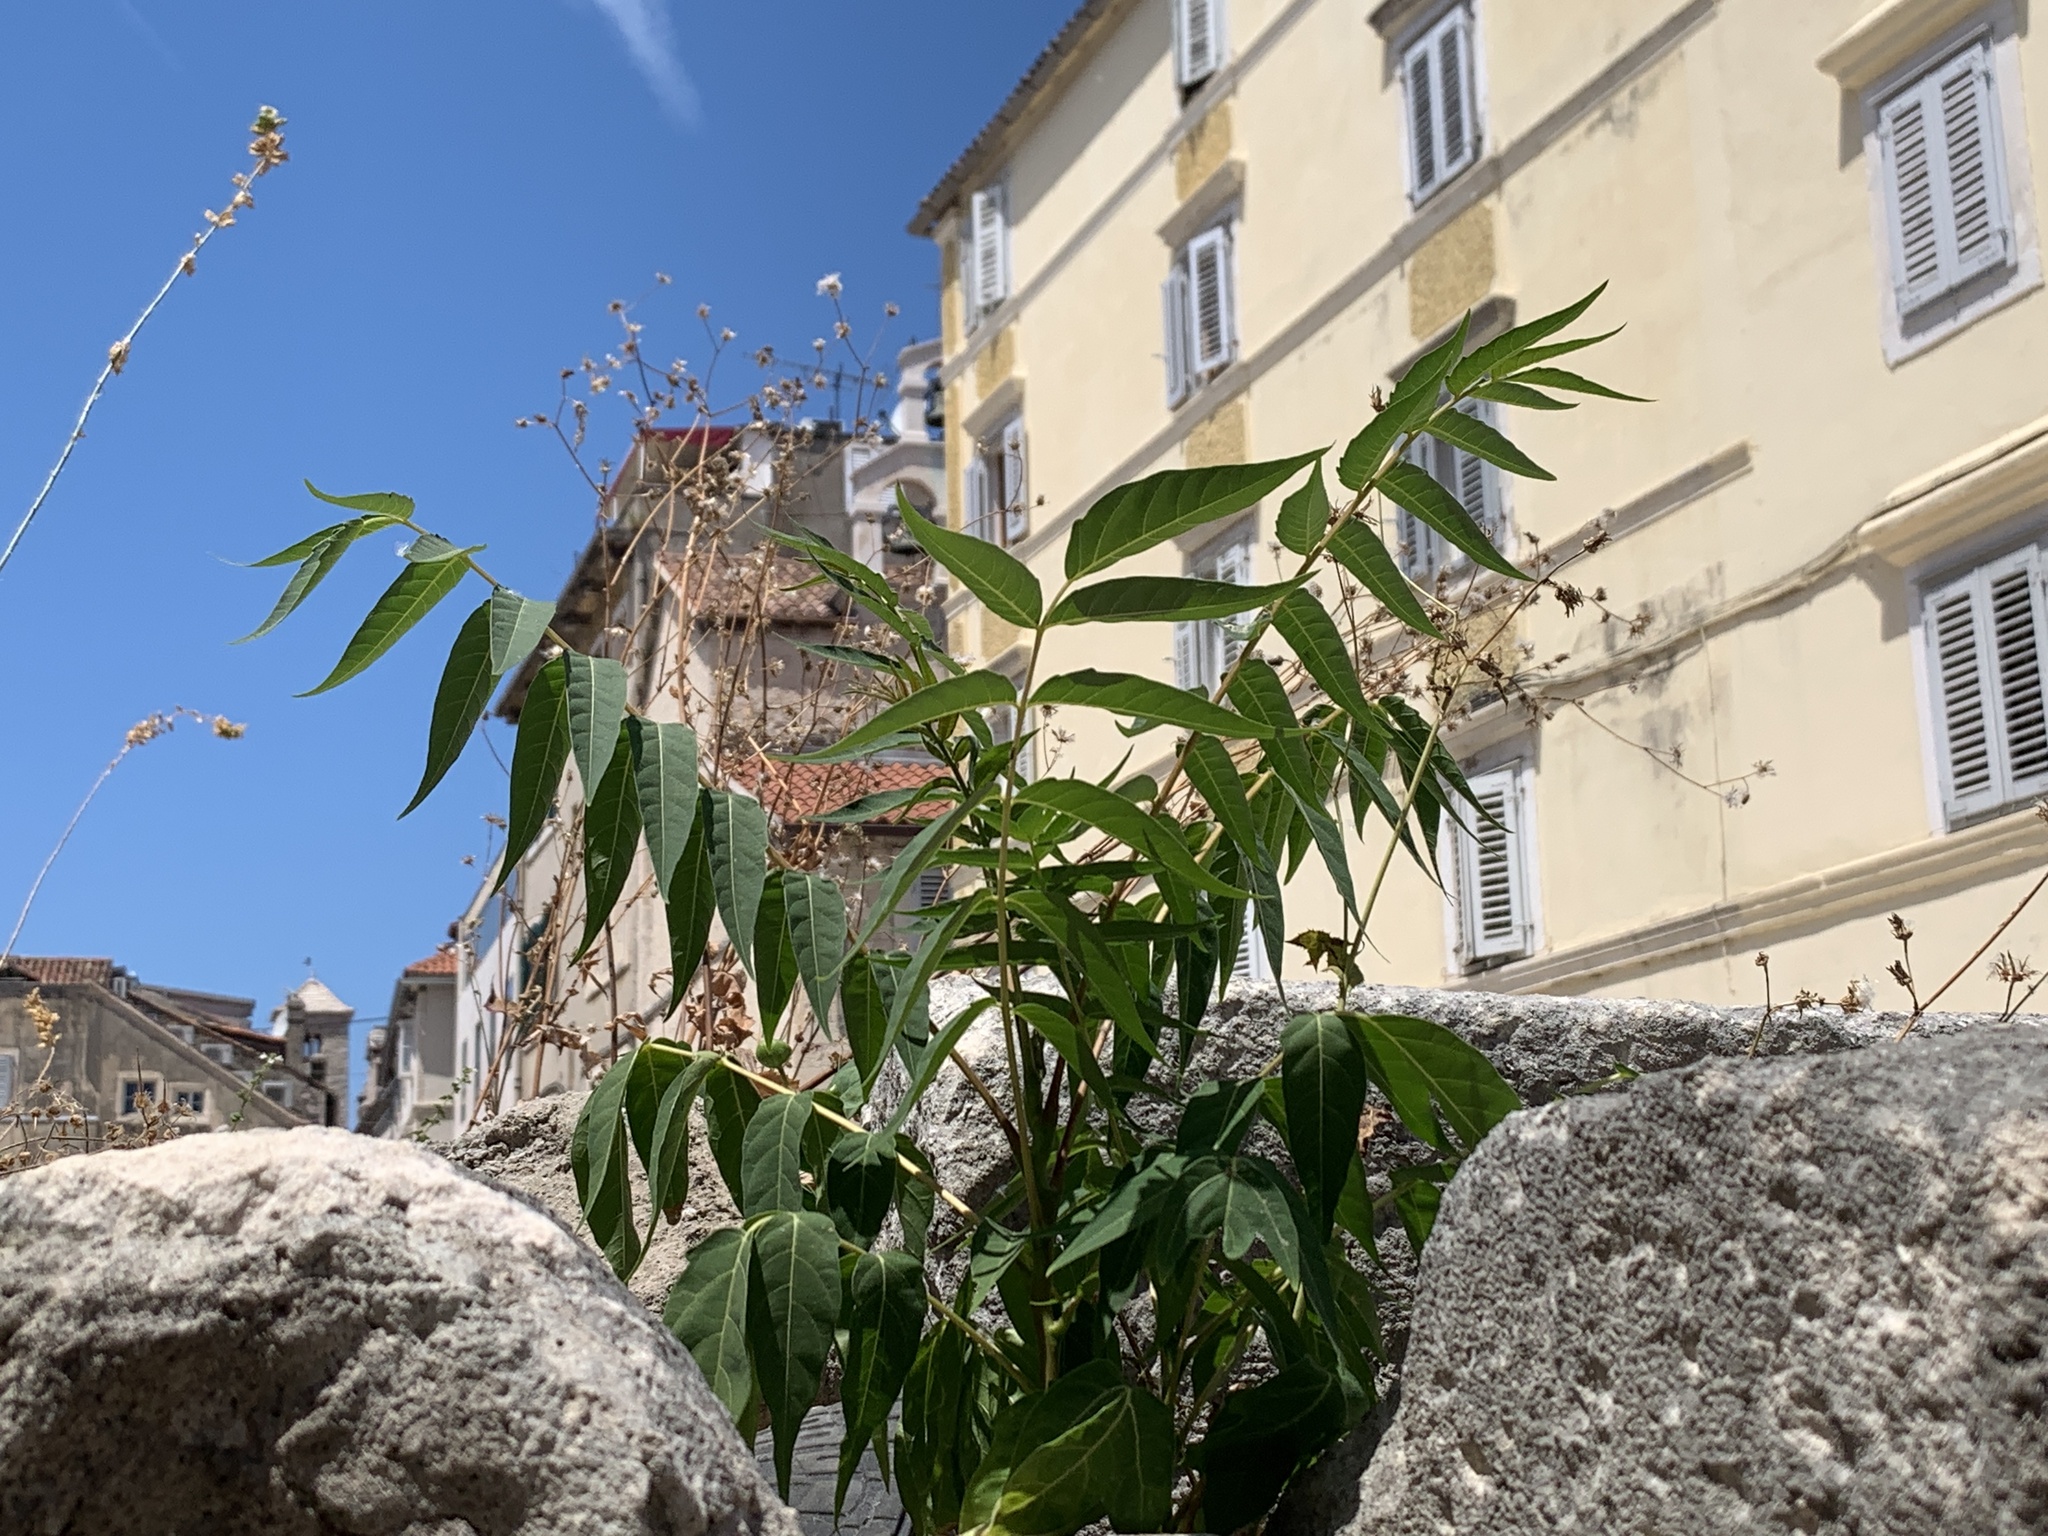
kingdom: Plantae
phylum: Tracheophyta
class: Magnoliopsida
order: Sapindales
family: Simaroubaceae
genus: Ailanthus
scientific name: Ailanthus altissima
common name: Tree-of-heaven
